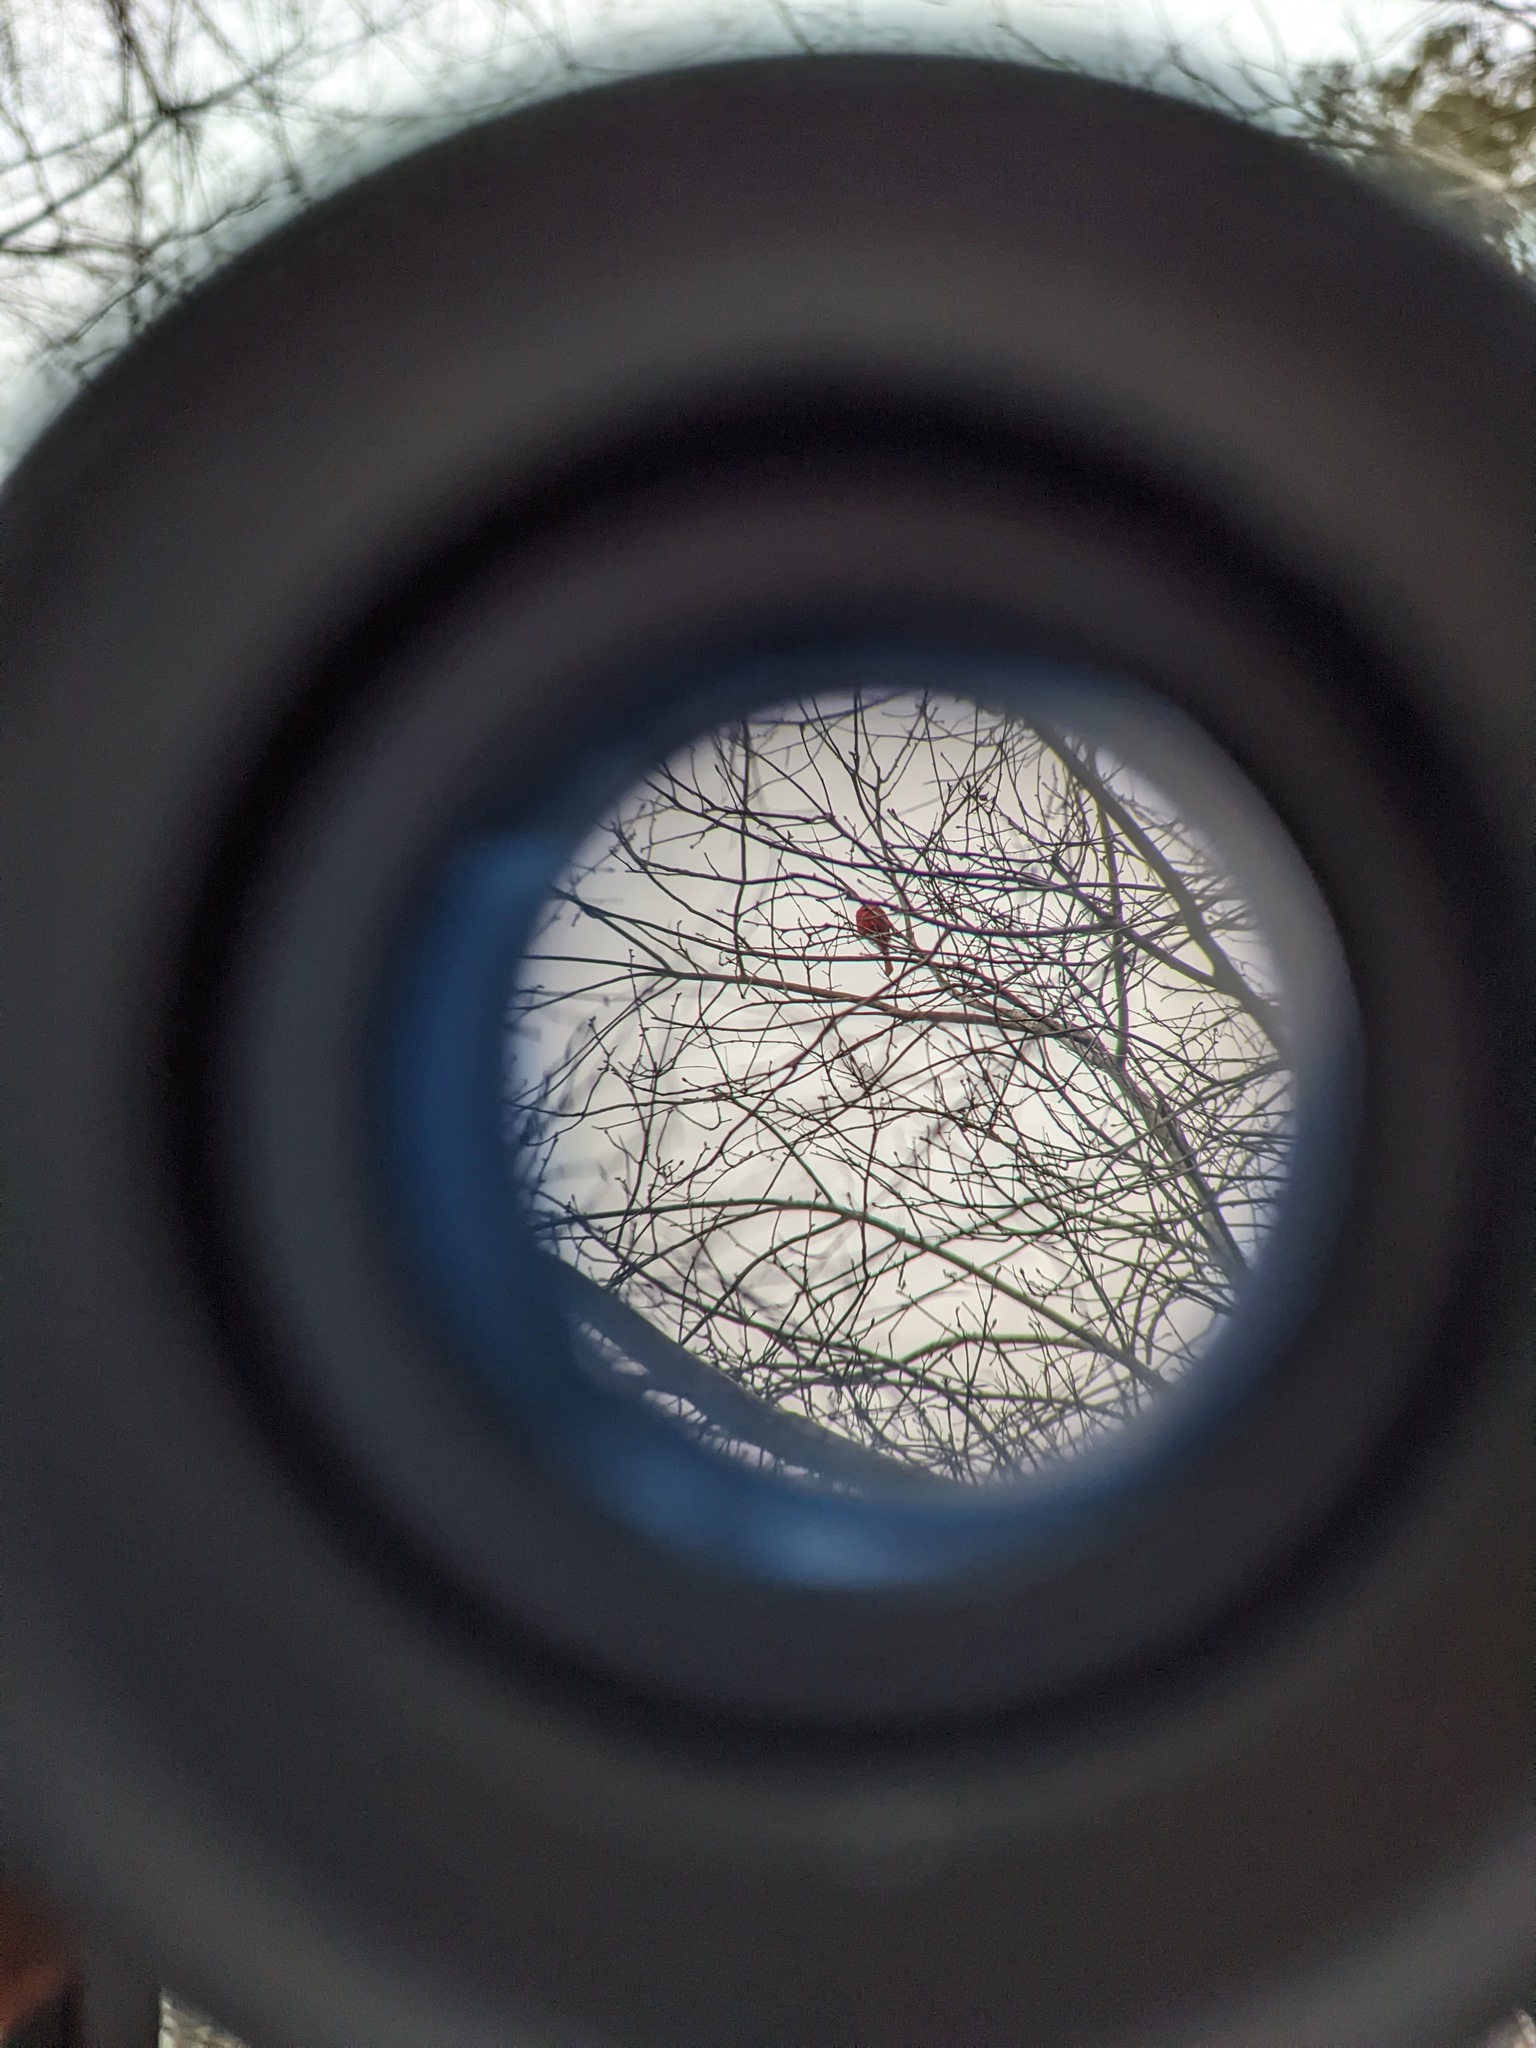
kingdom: Animalia
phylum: Chordata
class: Aves
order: Passeriformes
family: Cardinalidae
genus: Cardinalis
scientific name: Cardinalis cardinalis
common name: Northern cardinal
